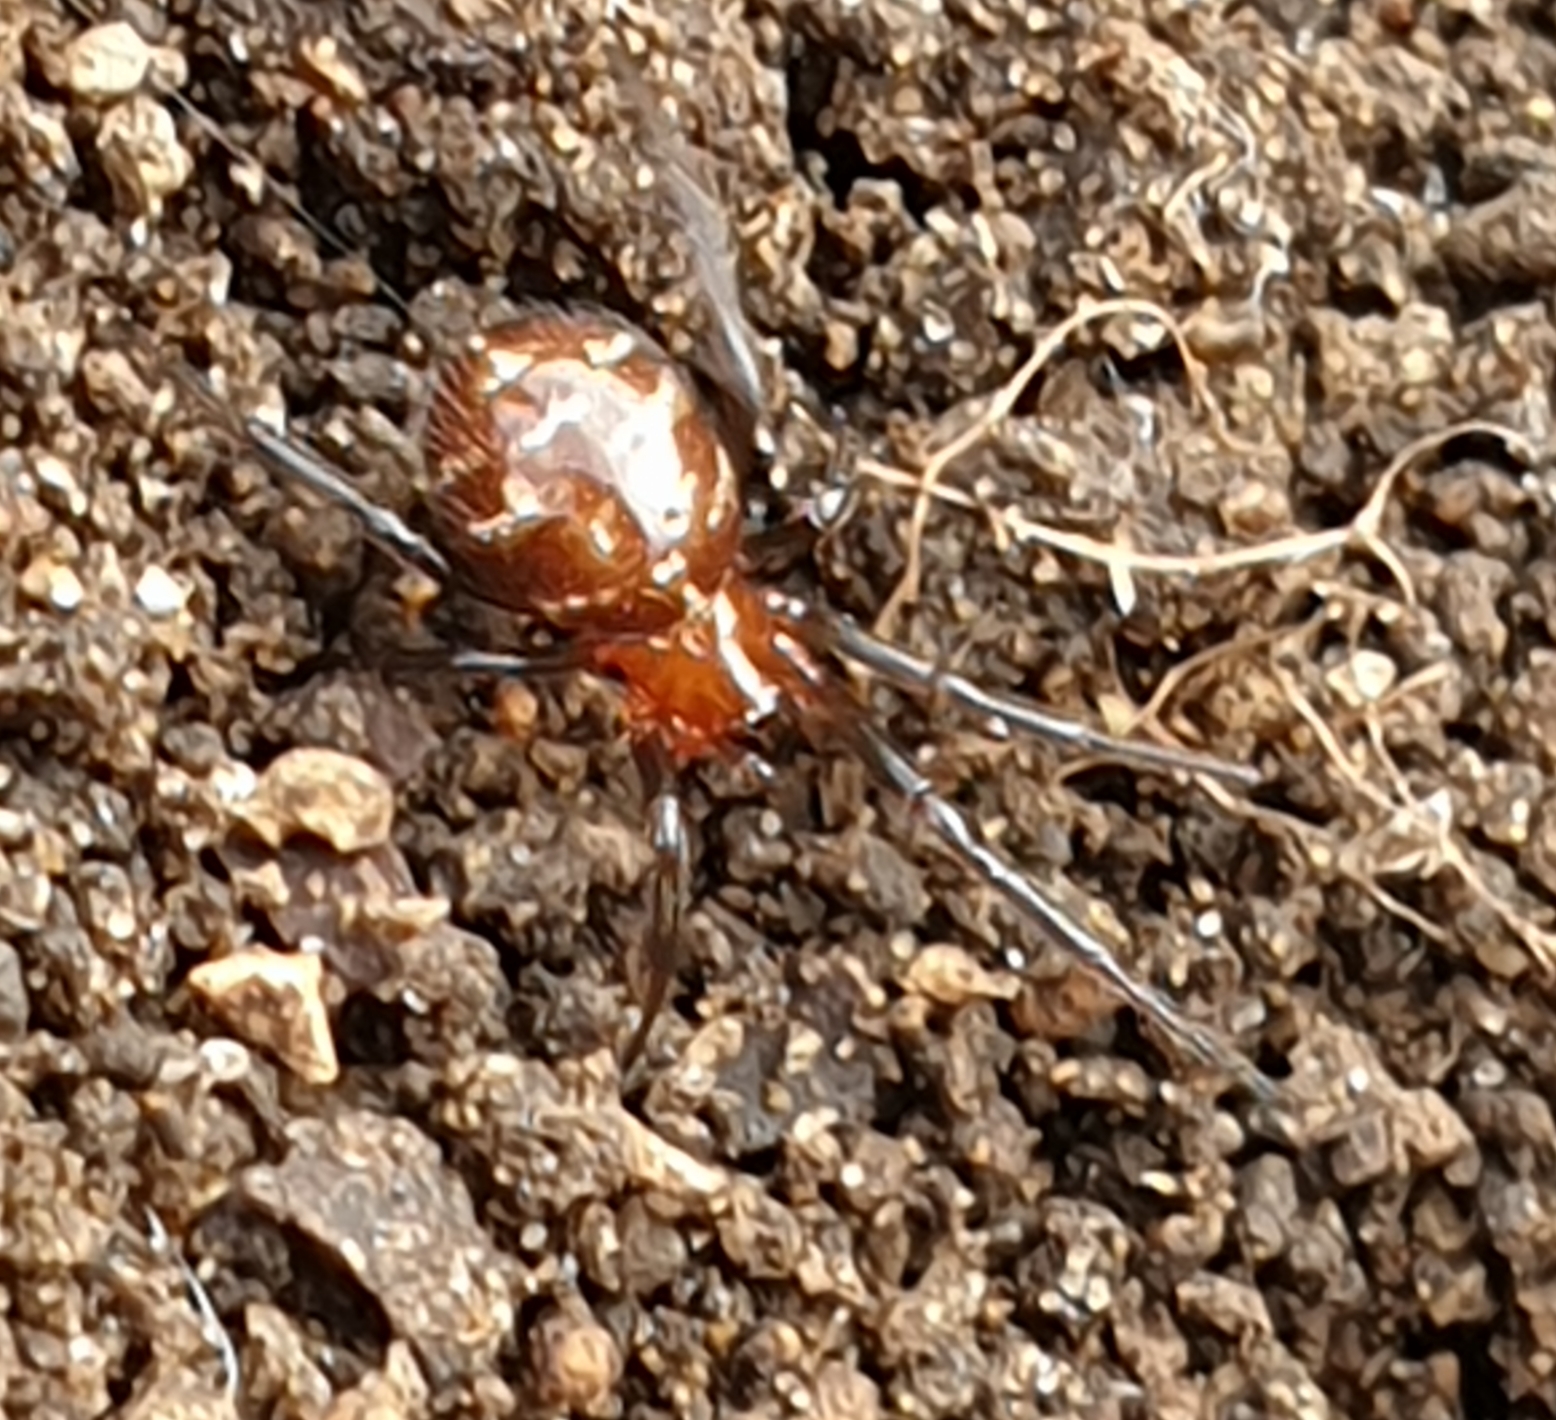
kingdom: Animalia
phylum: Arthropoda
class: Arachnida
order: Araneae
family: Theridiidae
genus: Steatoda
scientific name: Steatoda capensis
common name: Cobweb weaver
